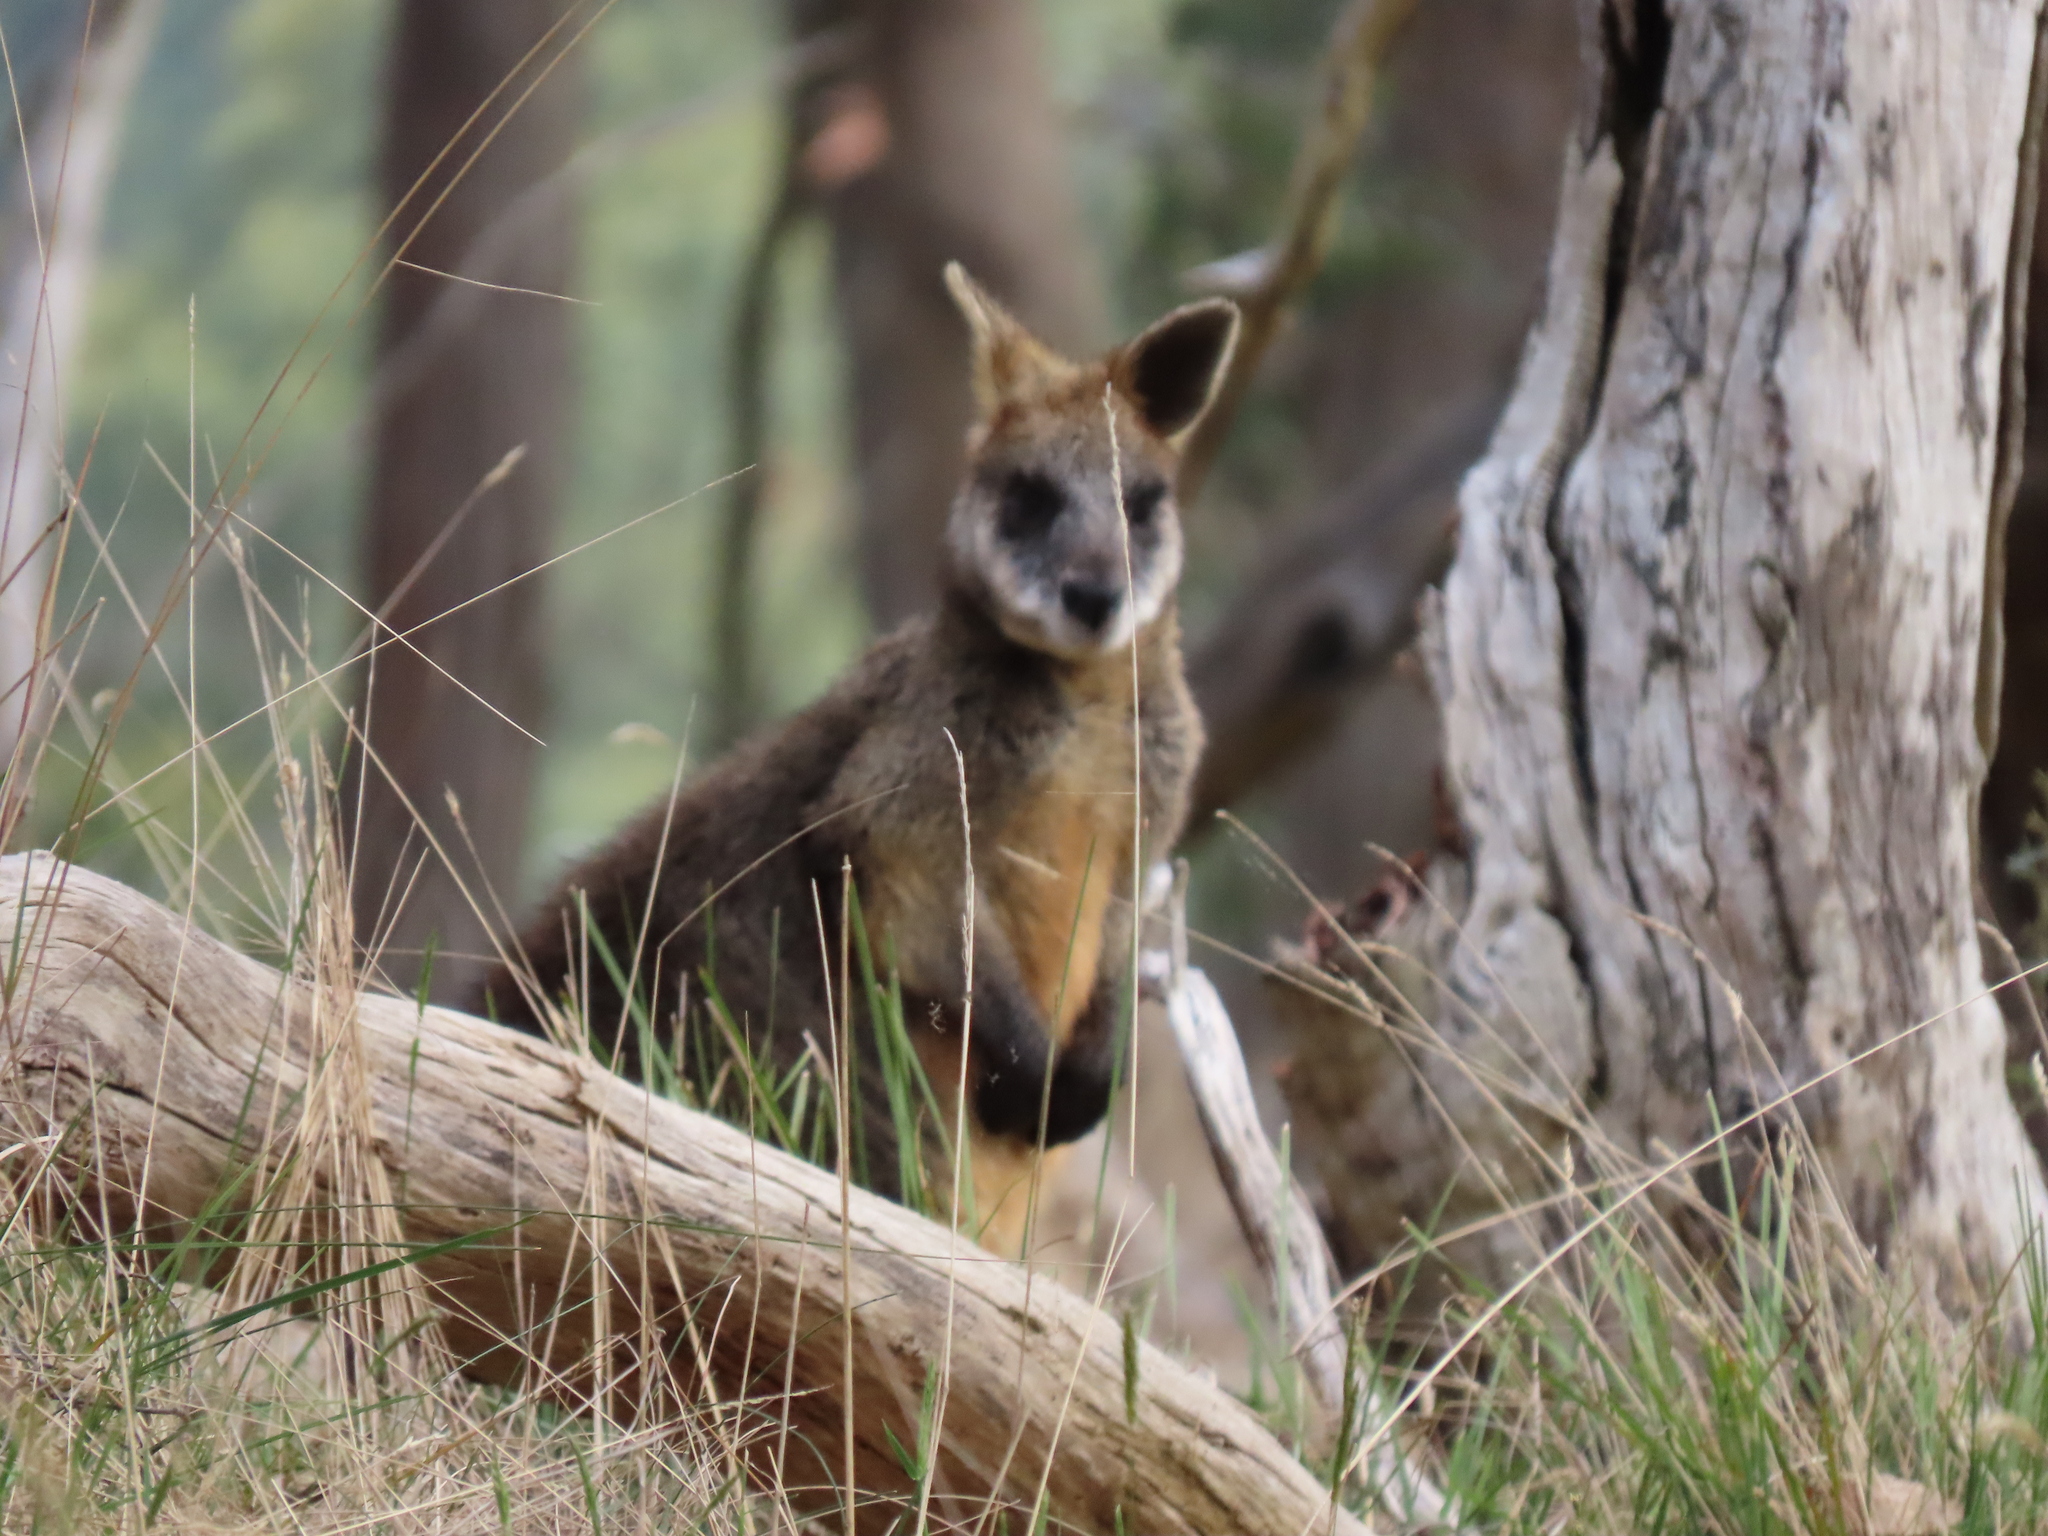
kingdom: Animalia
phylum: Chordata
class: Mammalia
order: Diprotodontia
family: Macropodidae
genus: Wallabia
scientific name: Wallabia bicolor
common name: Swamp wallaby
